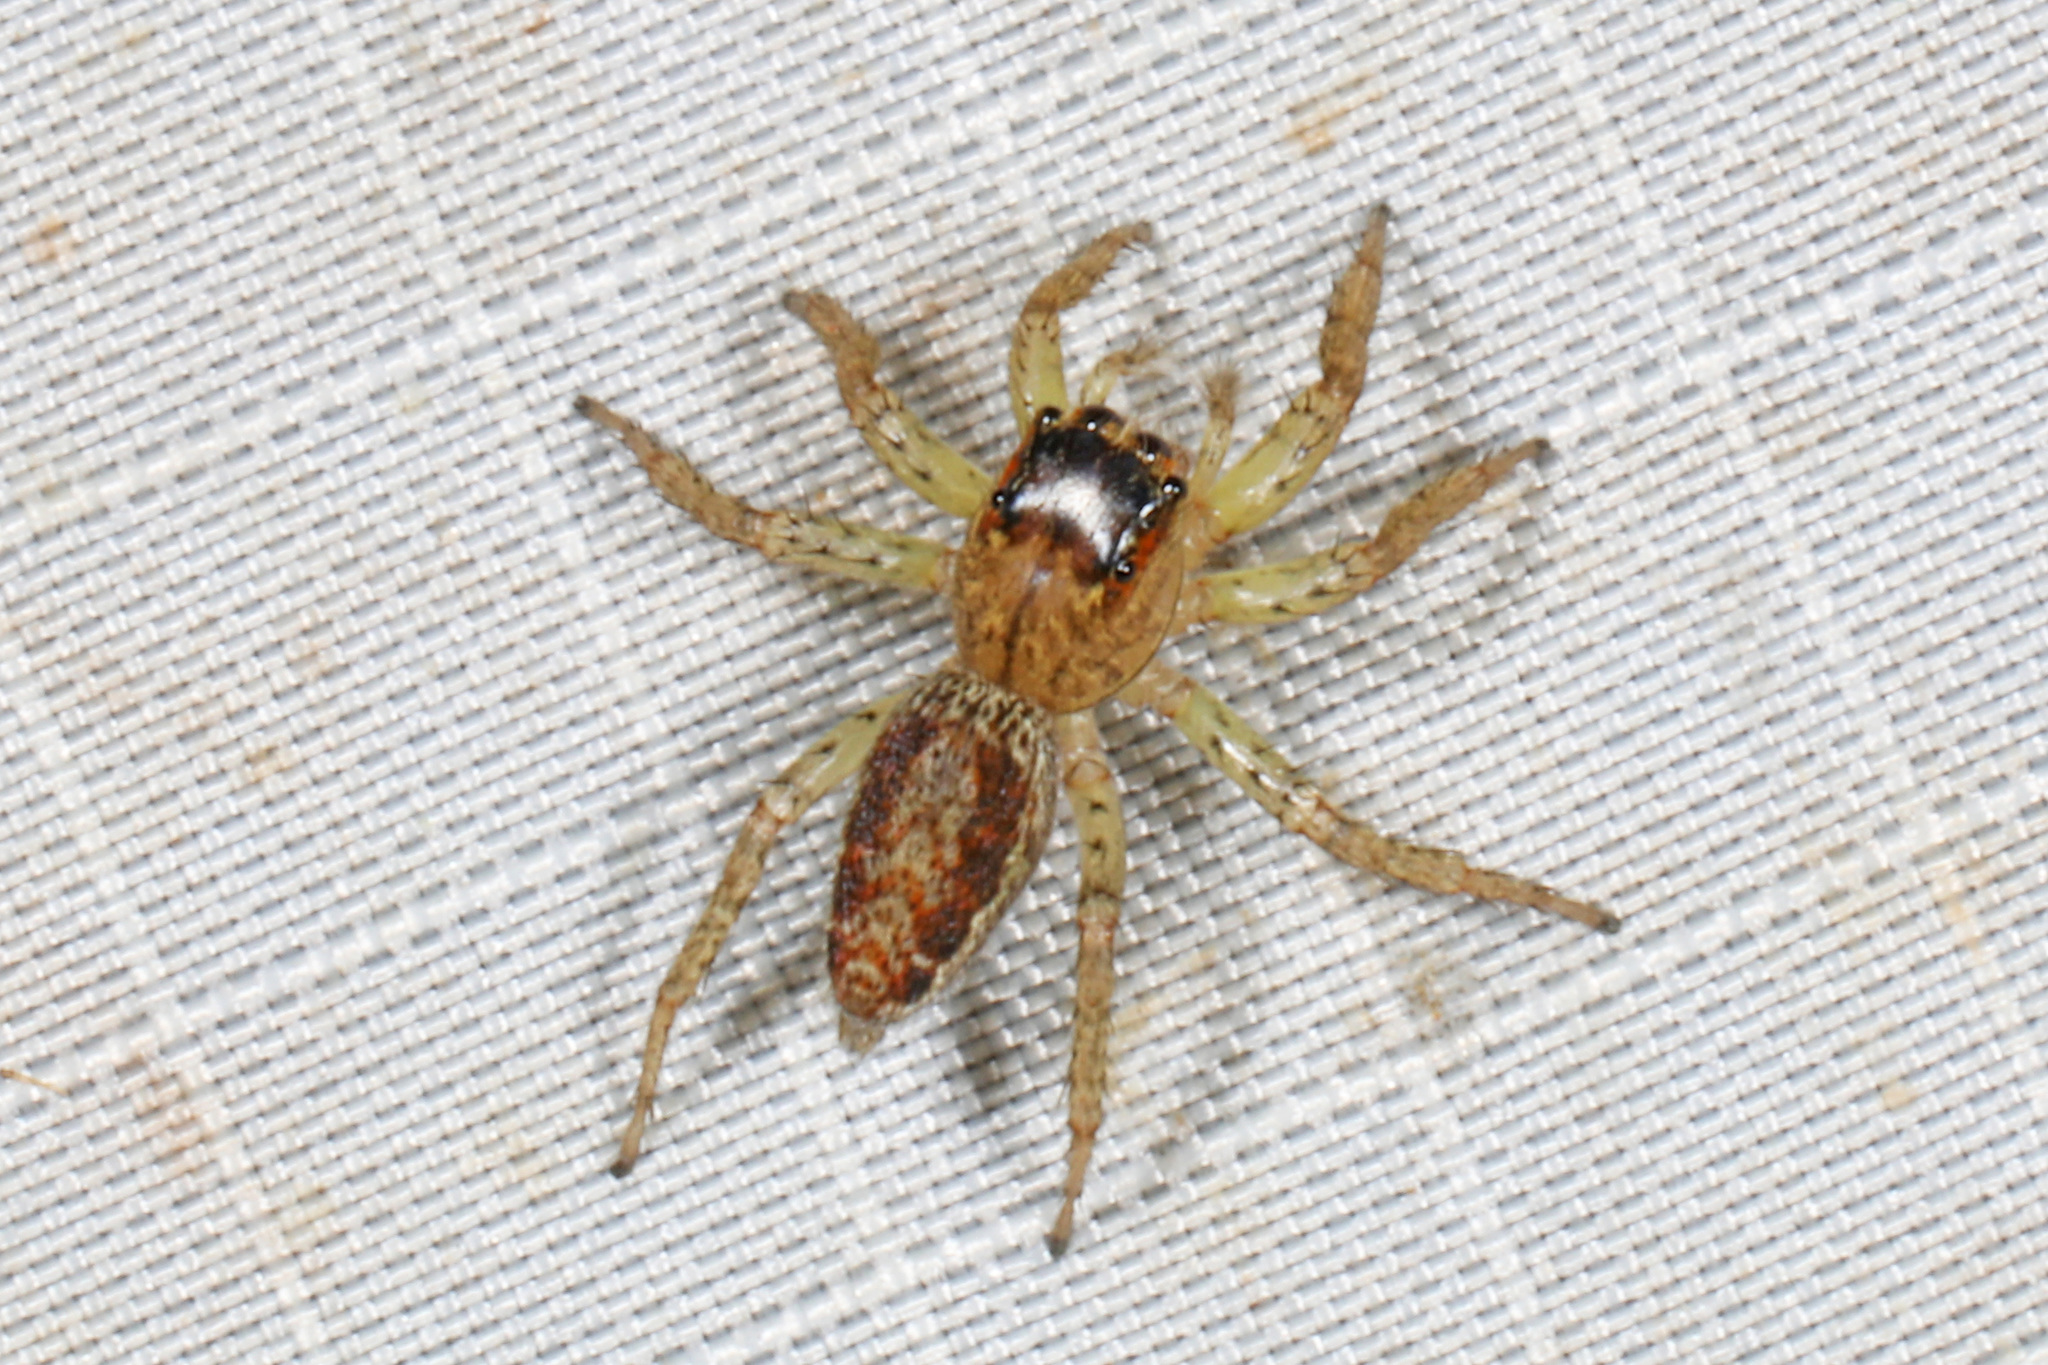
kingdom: Animalia
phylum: Arthropoda
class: Arachnida
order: Araneae
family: Salticidae
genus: Maevia
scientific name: Maevia inclemens
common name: Dimorphic jumper
